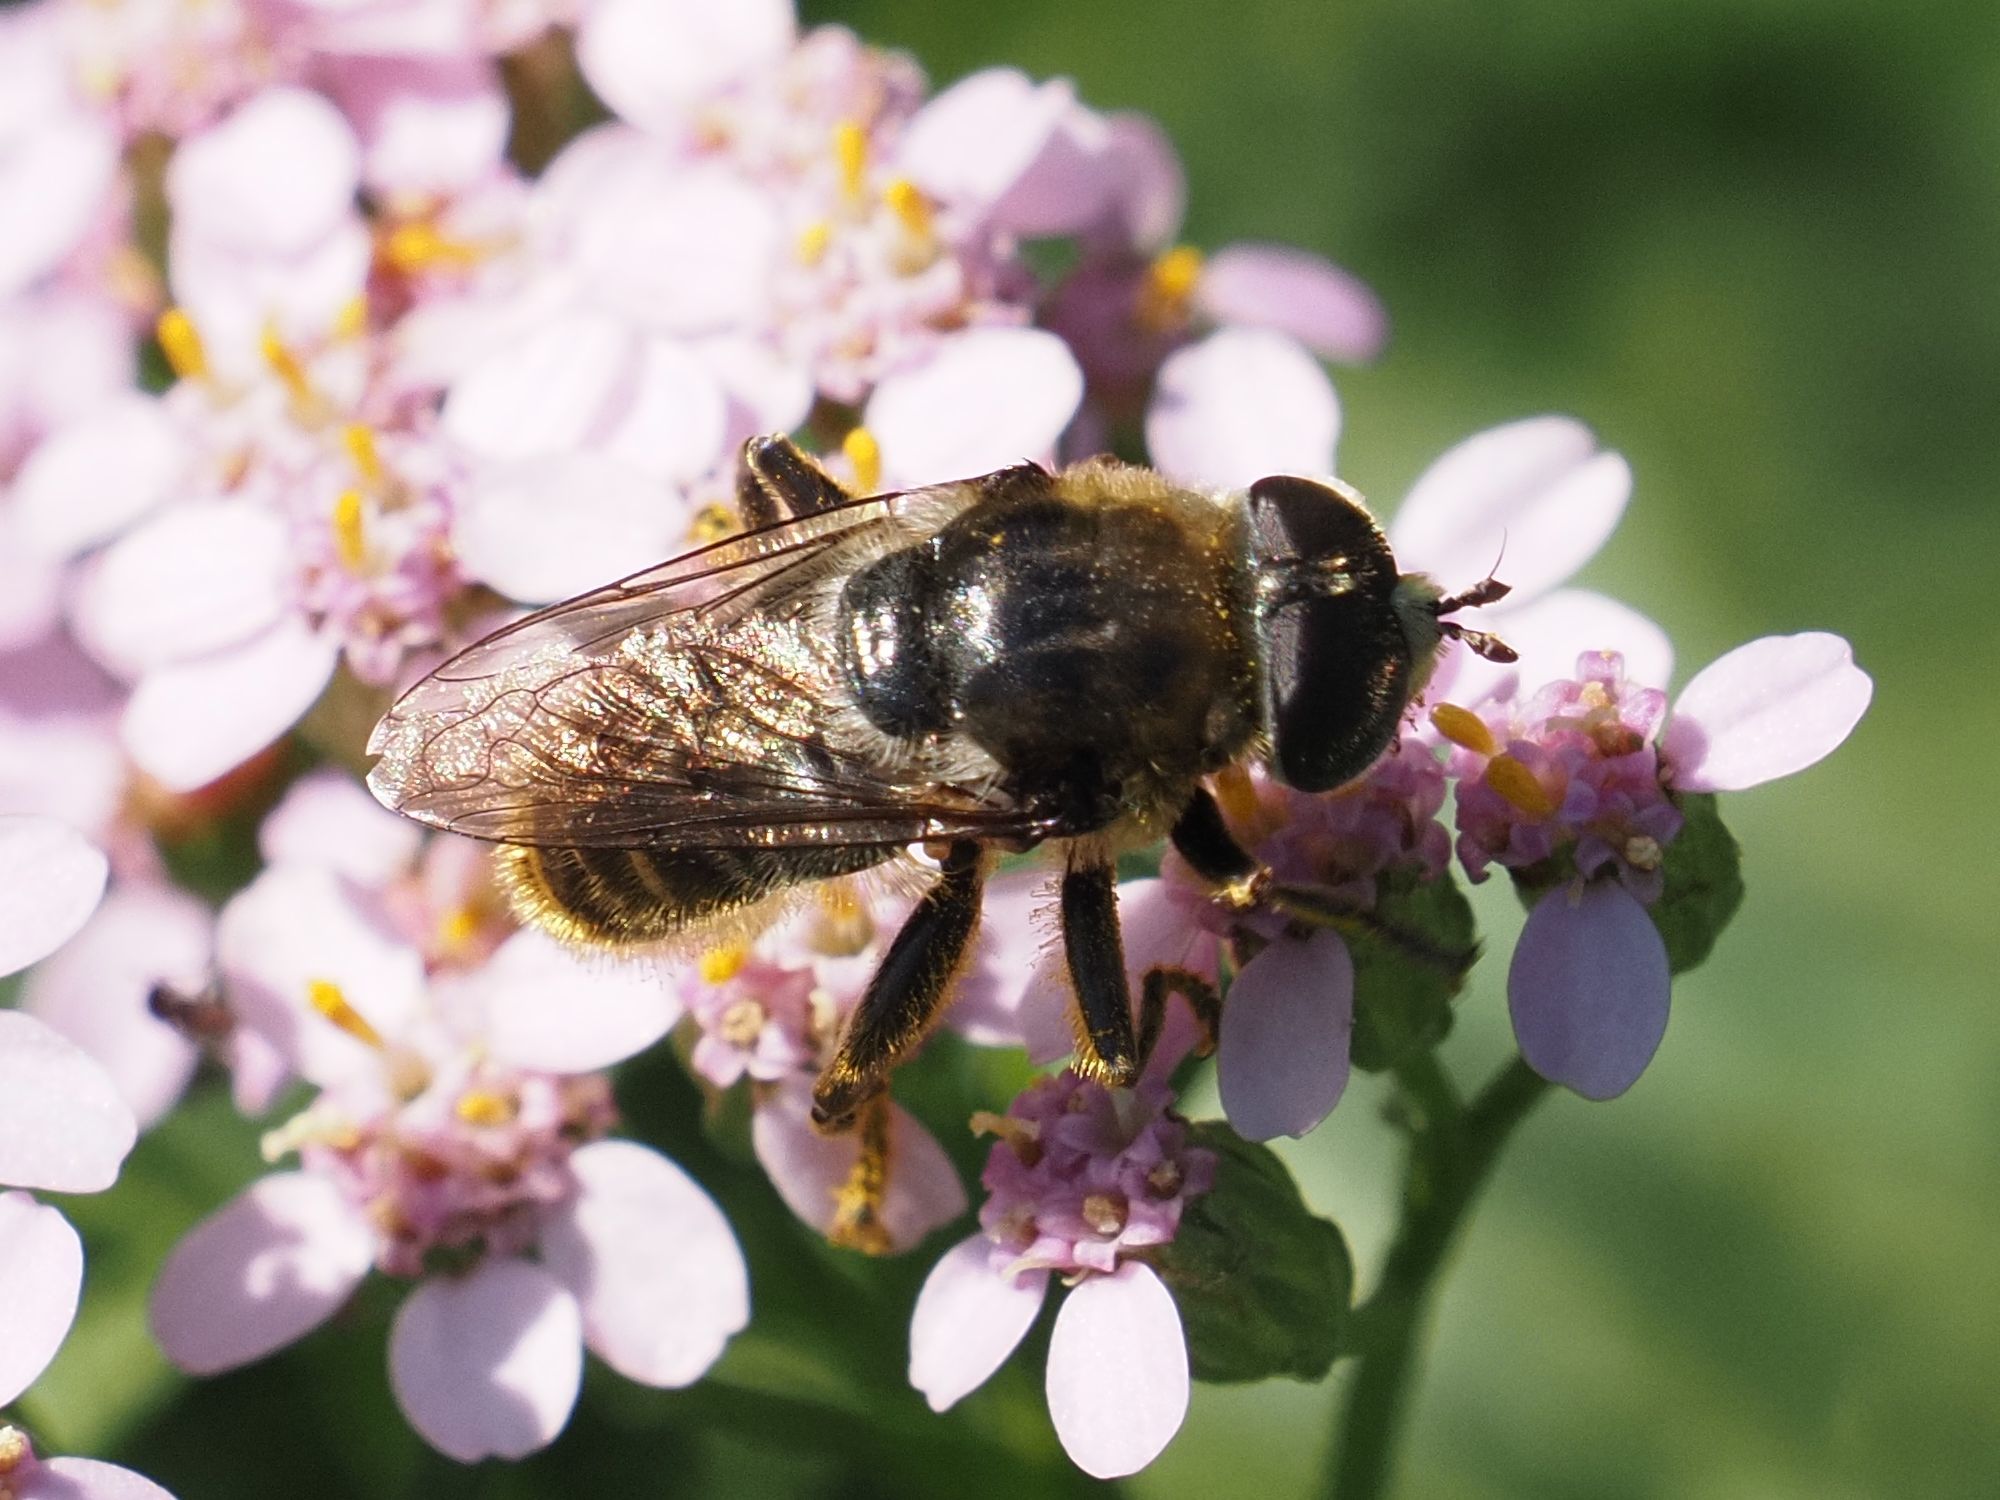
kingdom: Animalia
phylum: Arthropoda
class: Insecta
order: Diptera
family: Syrphidae
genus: Merodon
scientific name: Merodon constans
